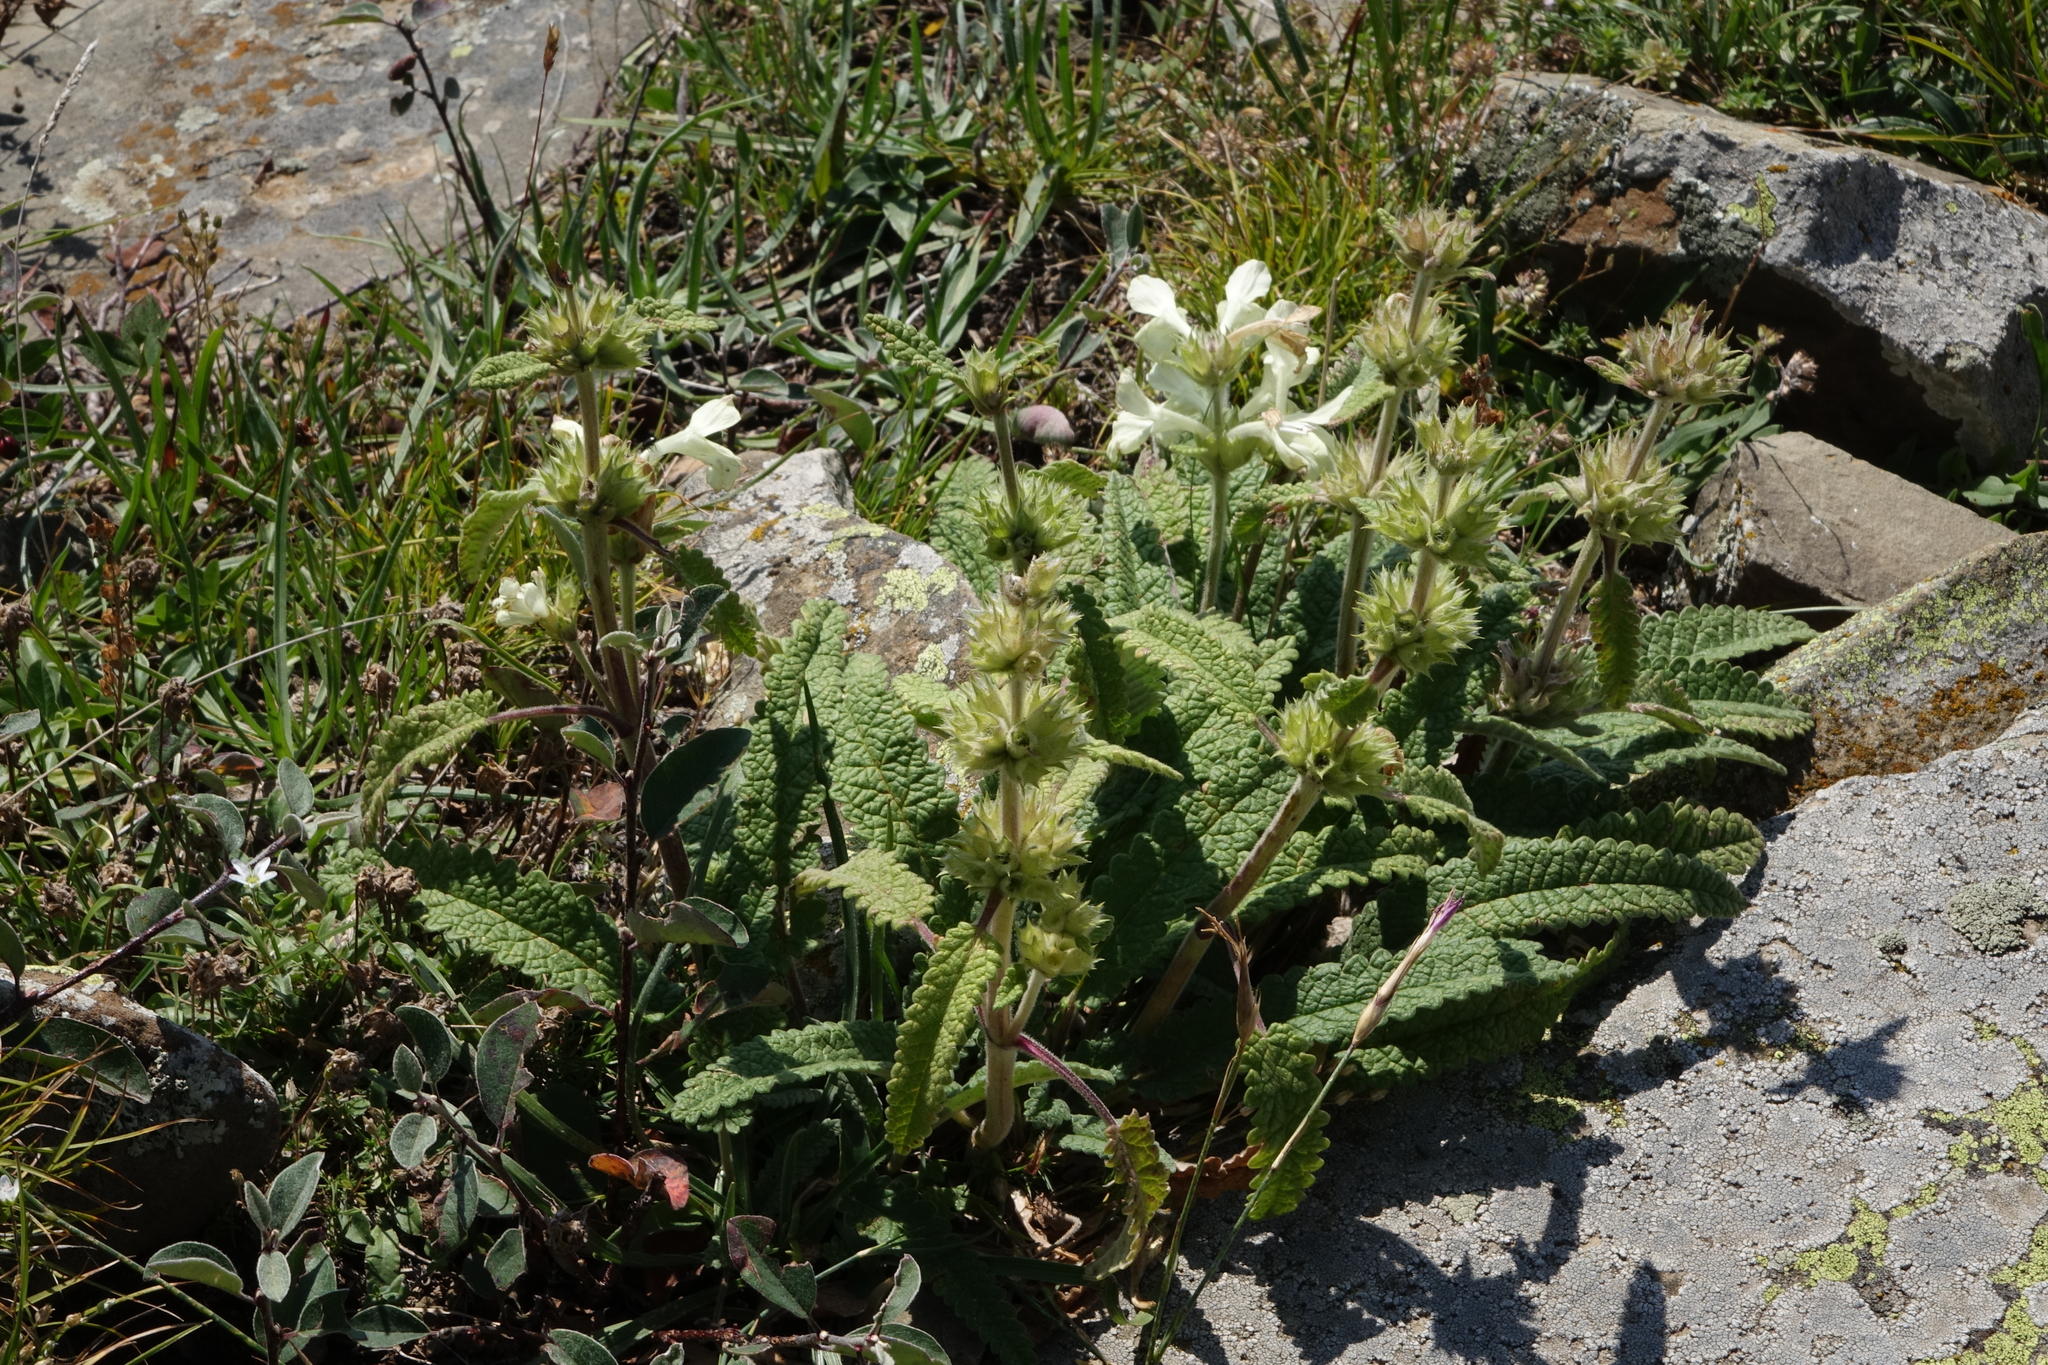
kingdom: Plantae
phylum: Tracheophyta
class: Magnoliopsida
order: Lamiales
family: Lamiaceae
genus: Betonica
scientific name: Betonica nivea
